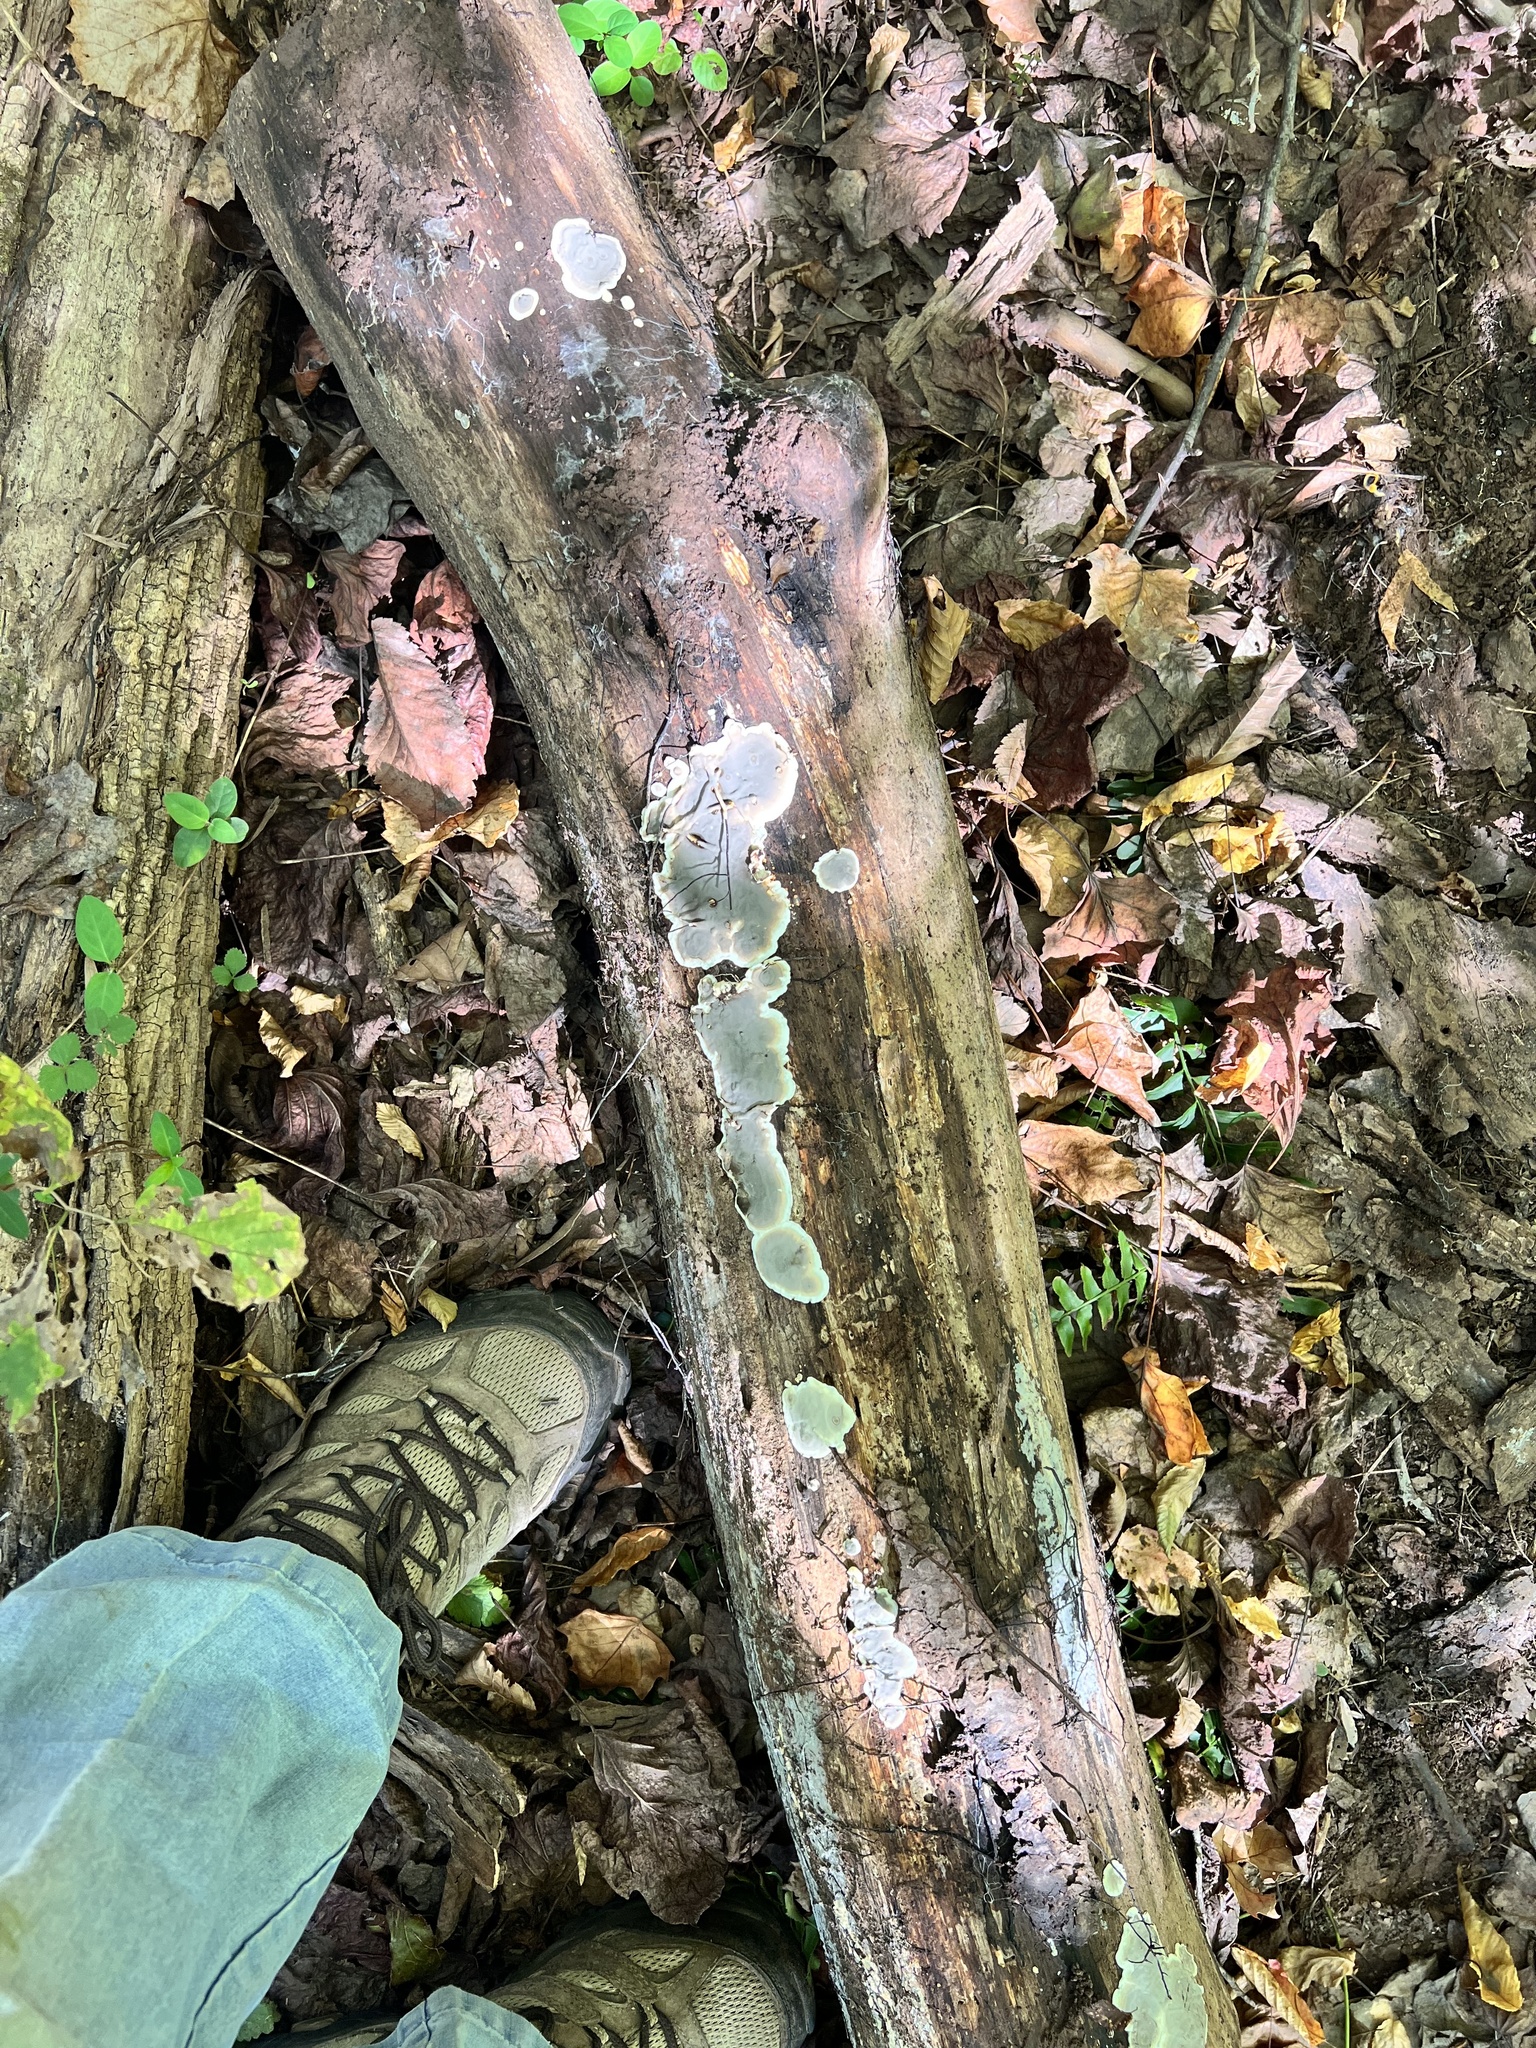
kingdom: Fungi
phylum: Ascomycota
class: Sordariomycetes
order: Xylariales
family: Xylariaceae
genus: Kretzschmaria
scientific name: Kretzschmaria deusta
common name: Brittle cinder
